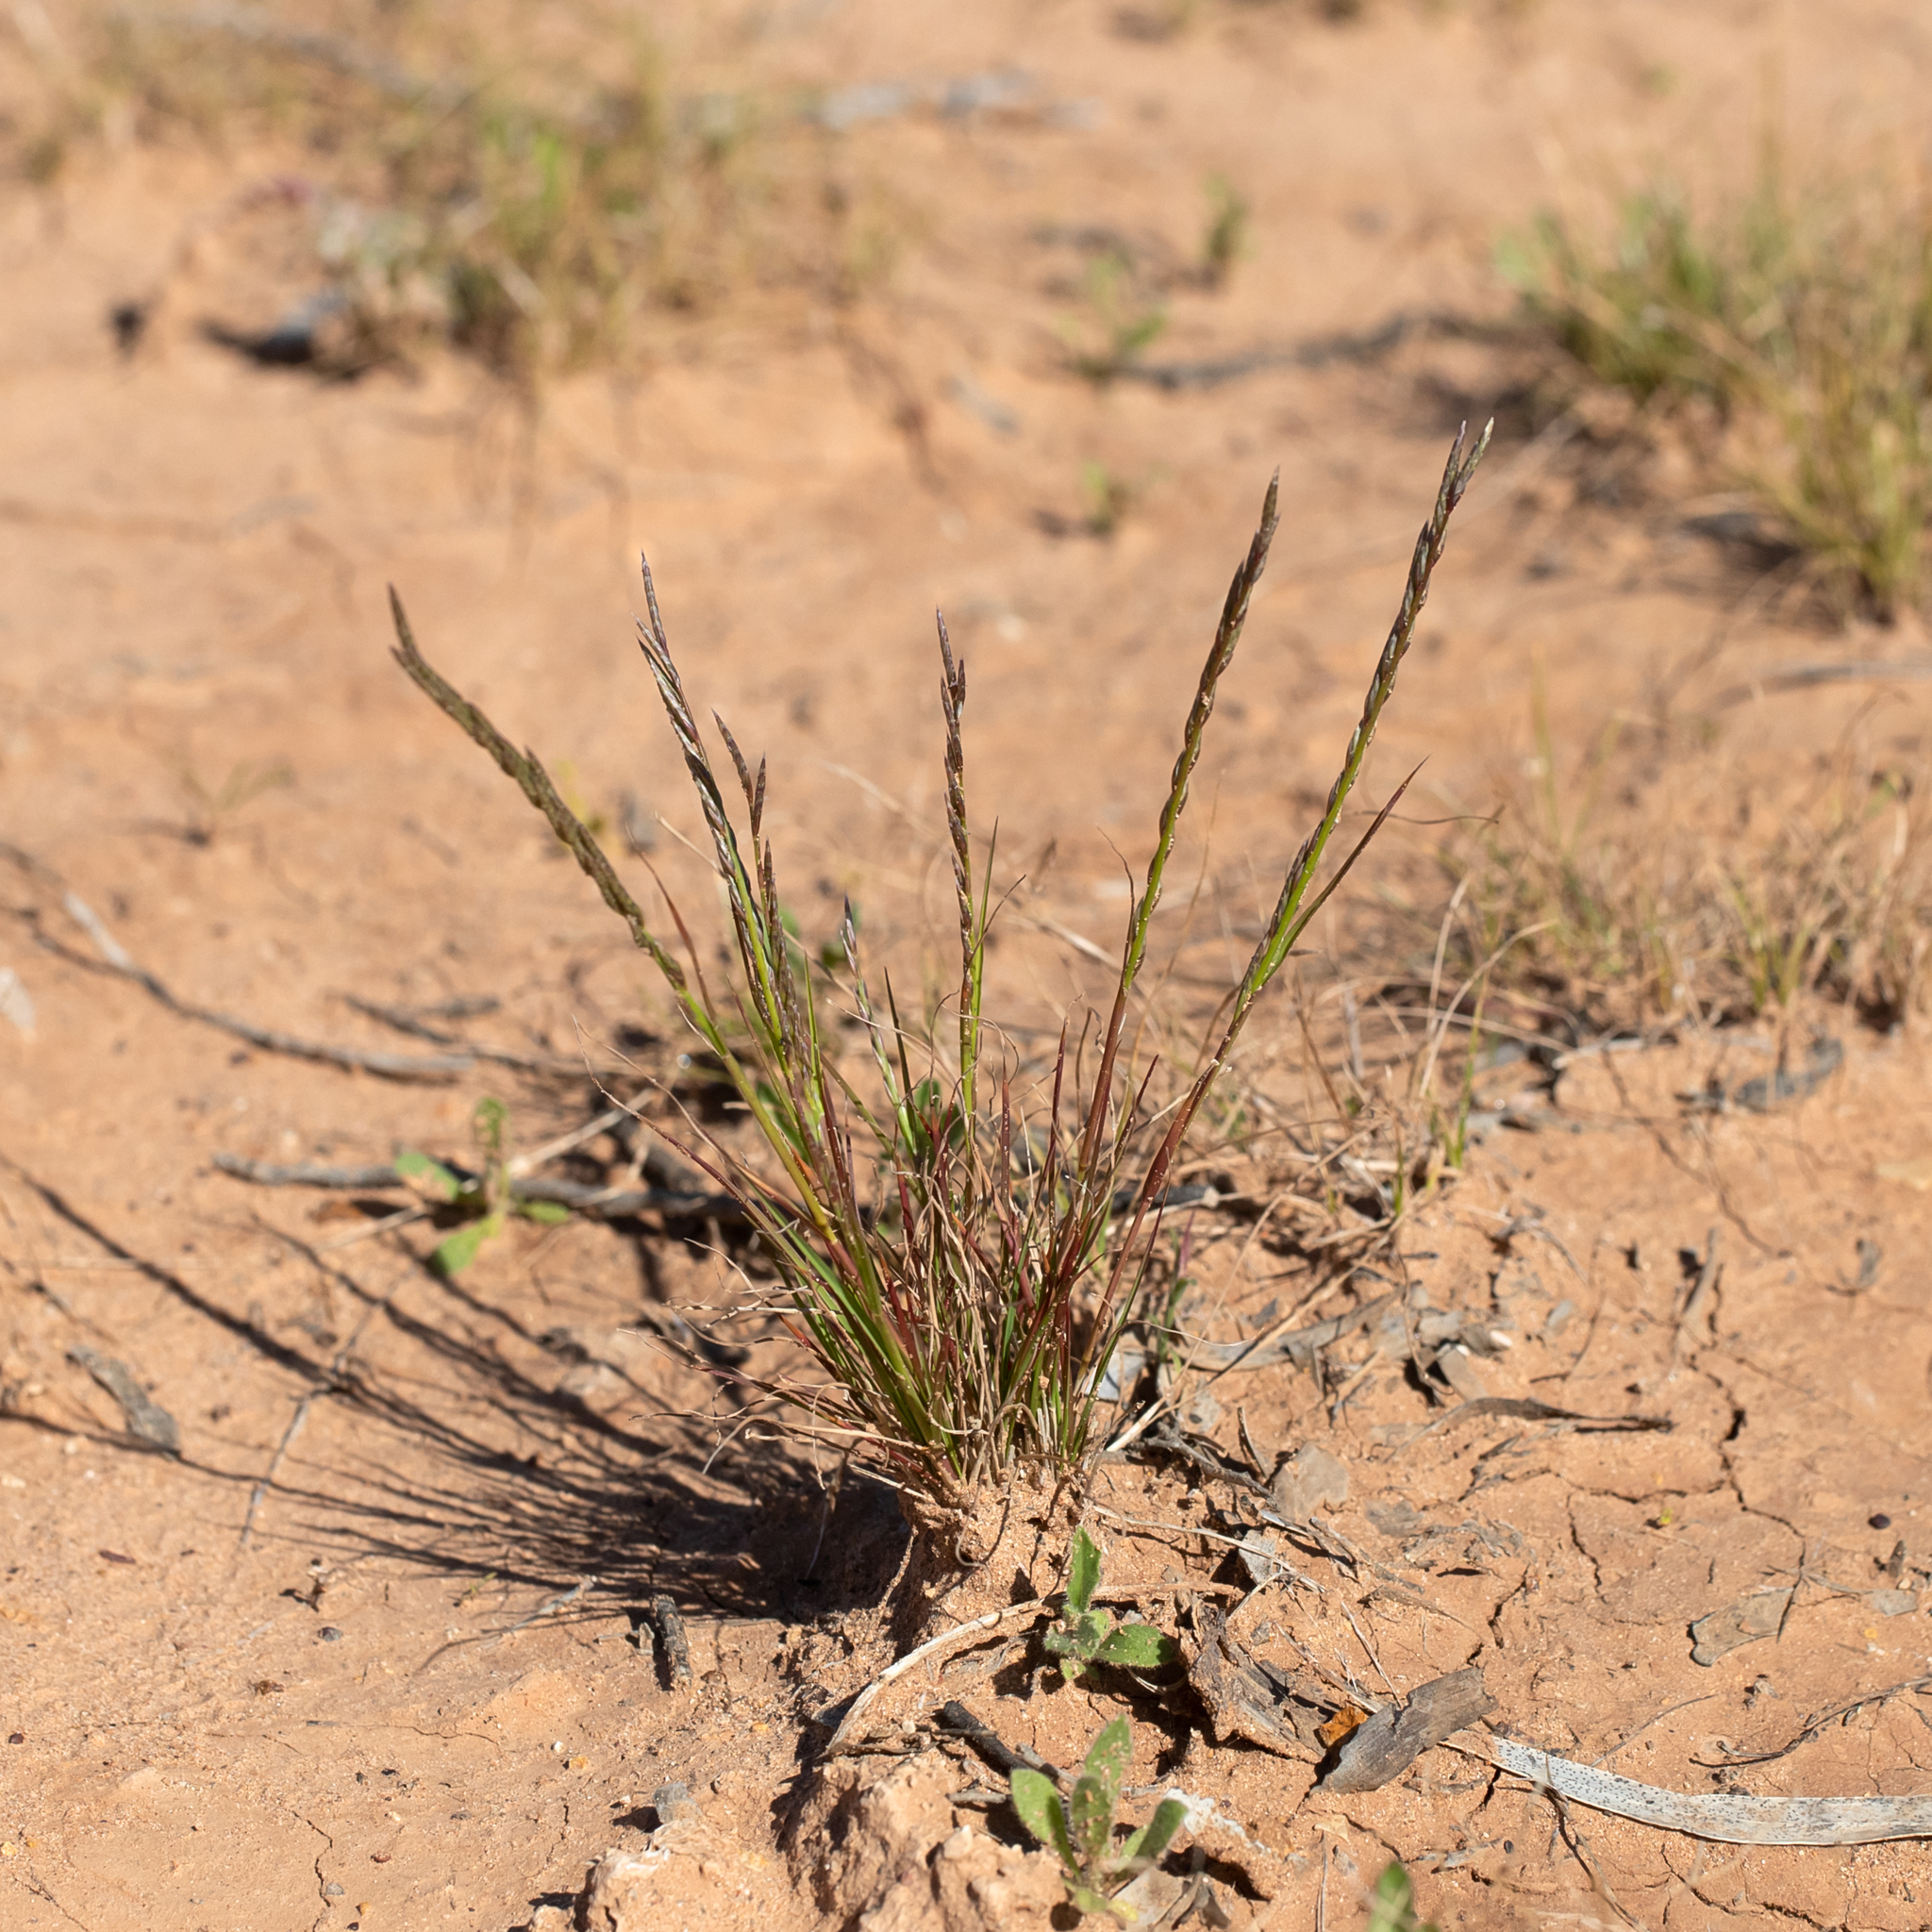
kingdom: Plantae
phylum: Tracheophyta
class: Liliopsida
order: Poales
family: Poaceae
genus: Tripogonella
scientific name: Tripogonella loliiformis
